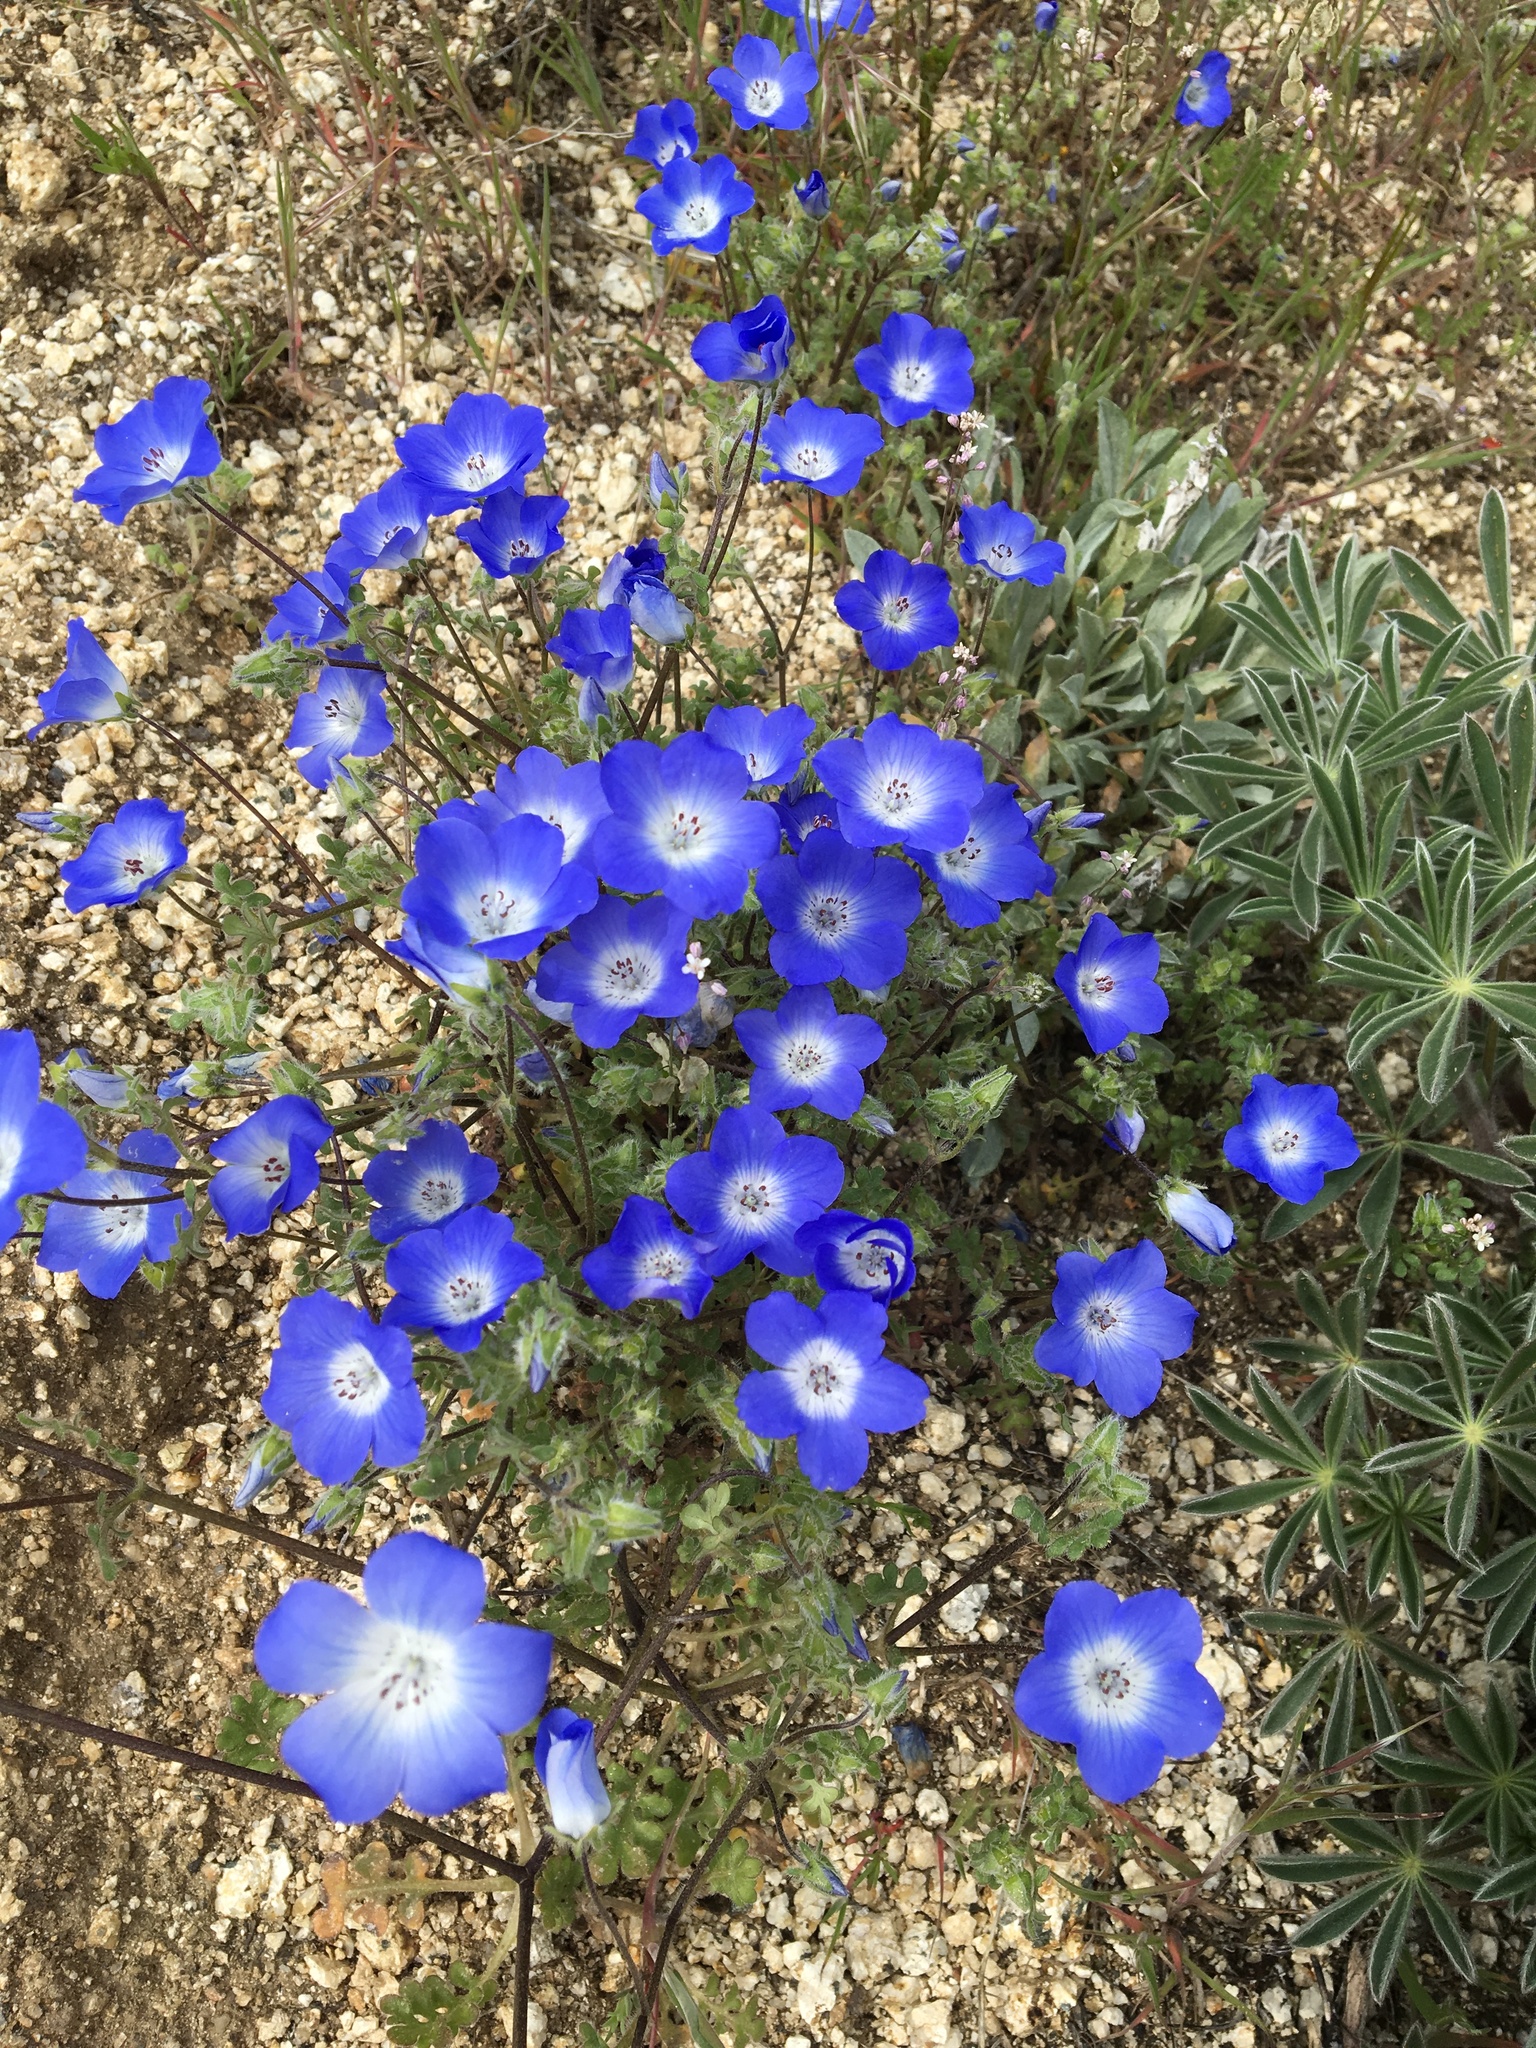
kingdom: Plantae
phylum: Tracheophyta
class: Magnoliopsida
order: Boraginales
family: Hydrophyllaceae
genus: Nemophila
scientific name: Nemophila menziesii
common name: Baby's-blue-eyes
